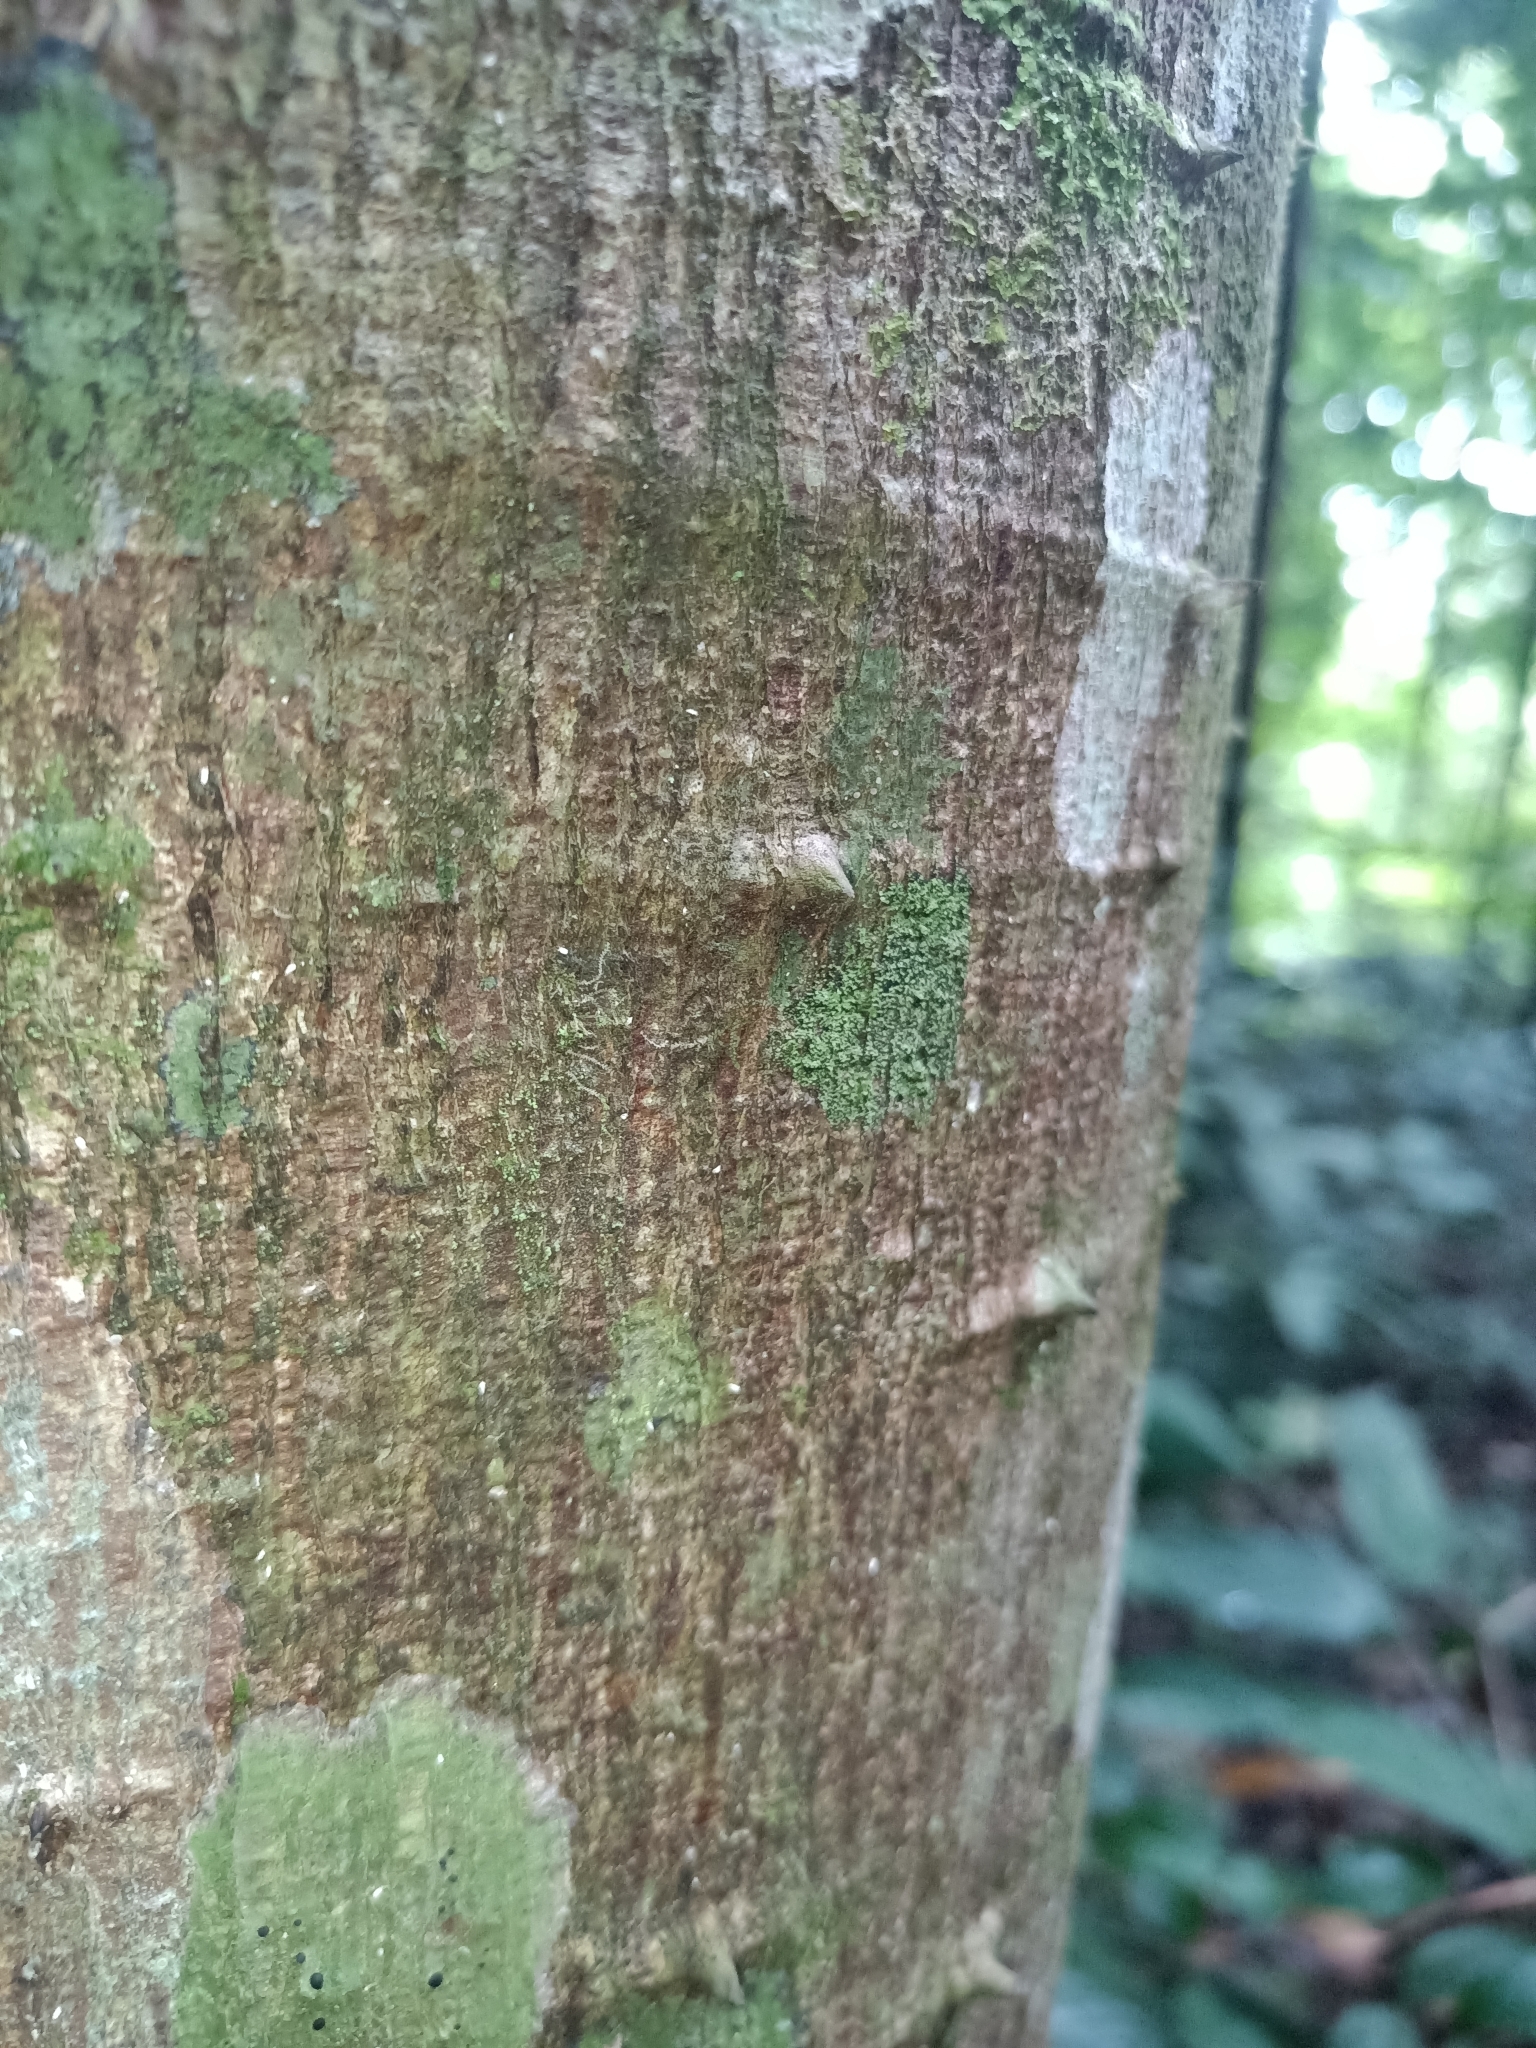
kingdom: Plantae
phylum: Tracheophyta
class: Magnoliopsida
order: Brassicales
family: Caricaceae
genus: Jacaratia
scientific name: Jacaratia spinosa
